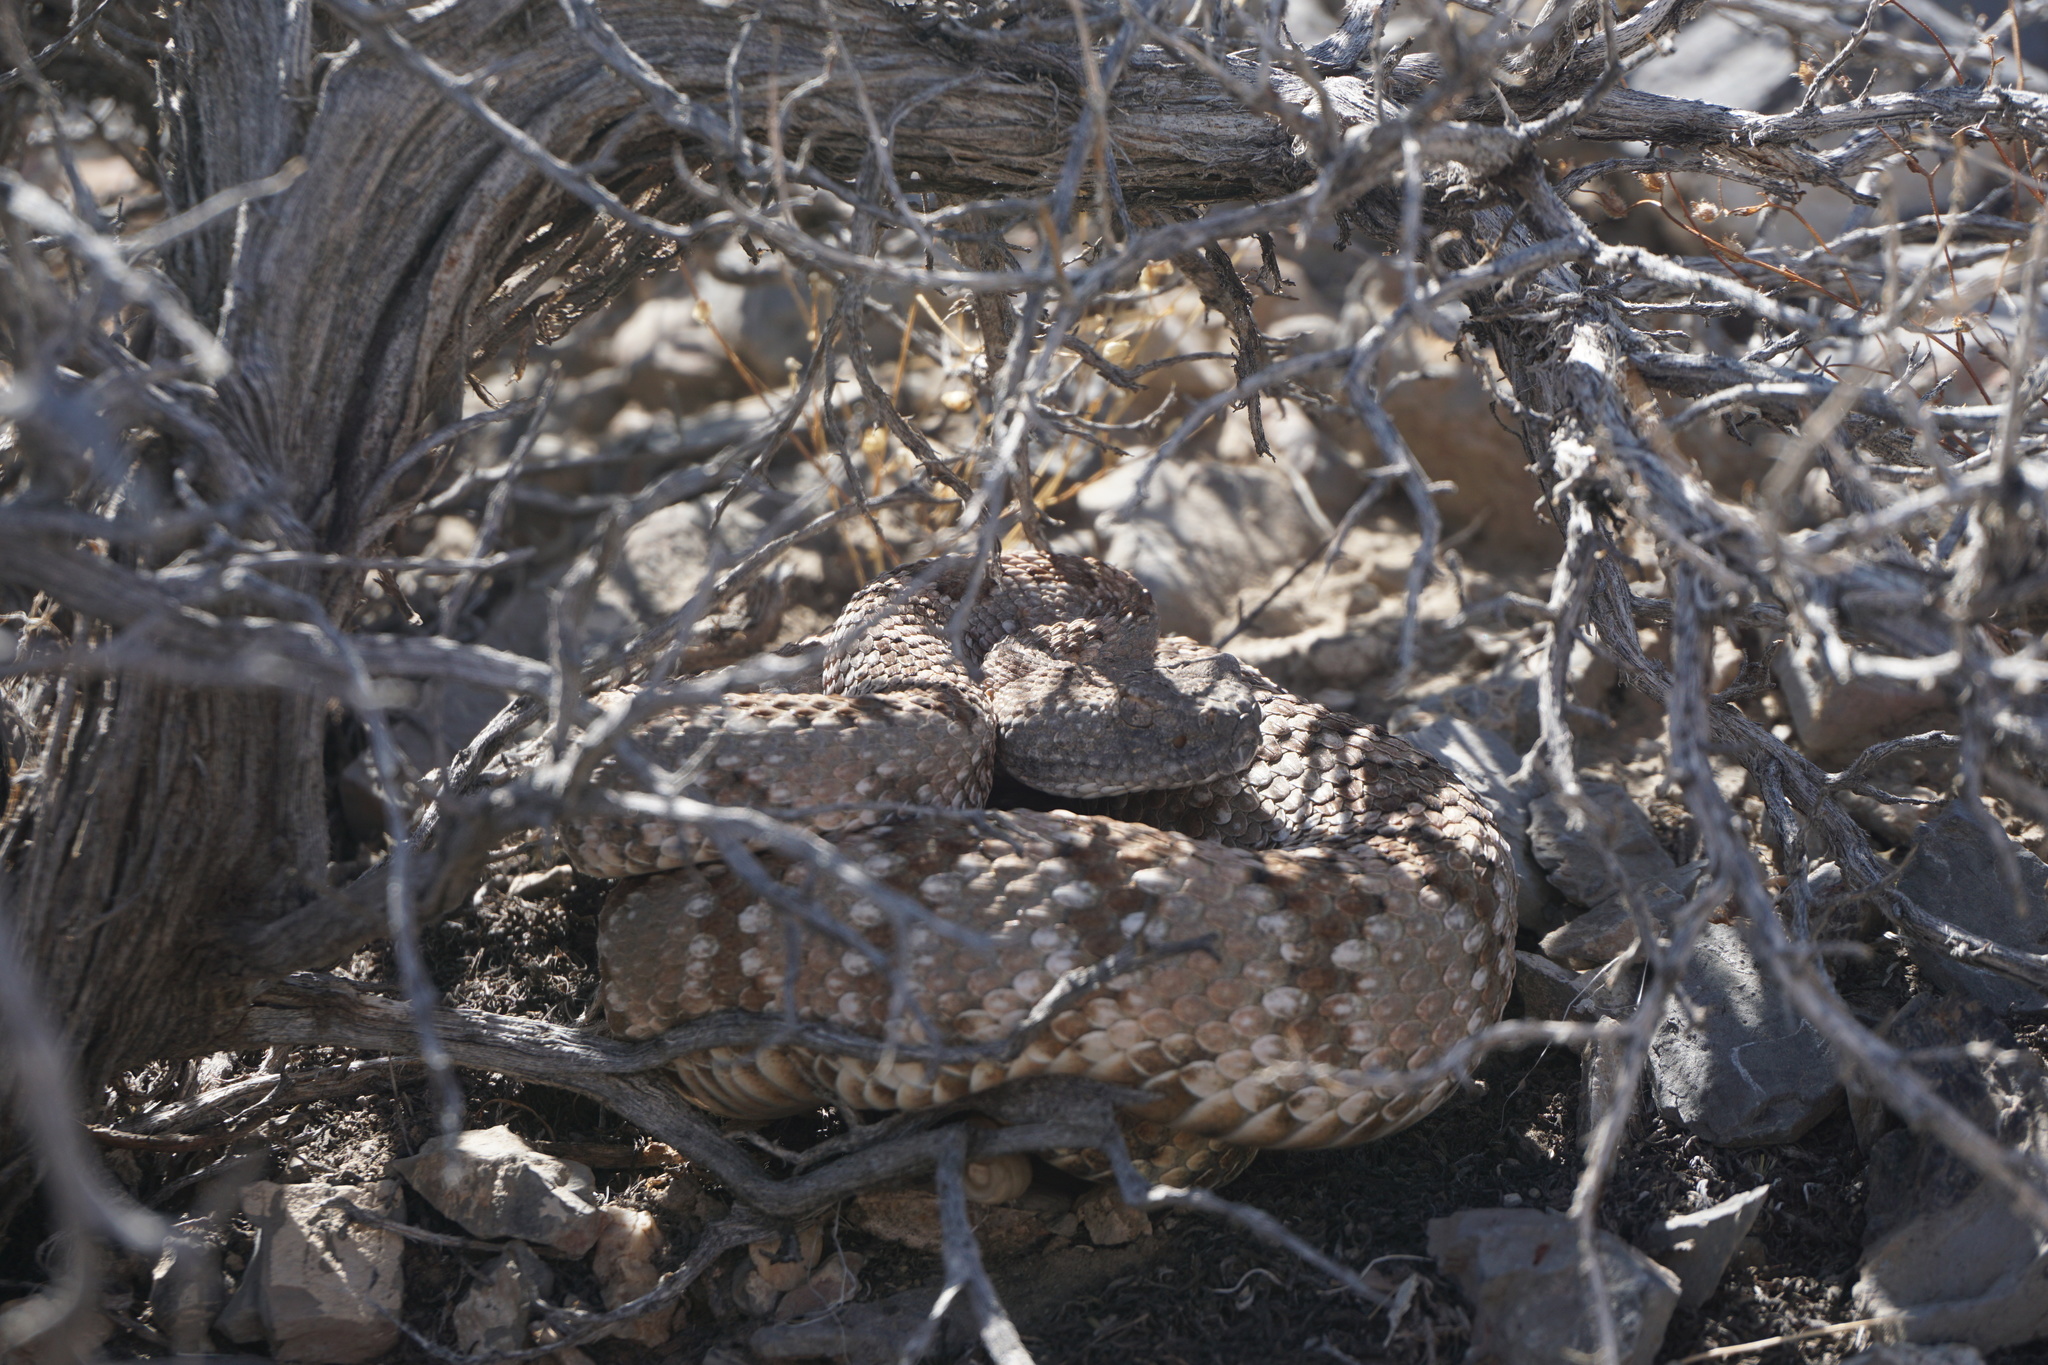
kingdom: Animalia
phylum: Chordata
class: Squamata
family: Viperidae
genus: Crotalus
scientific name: Crotalus stephensi
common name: Panamint rattlesnake
